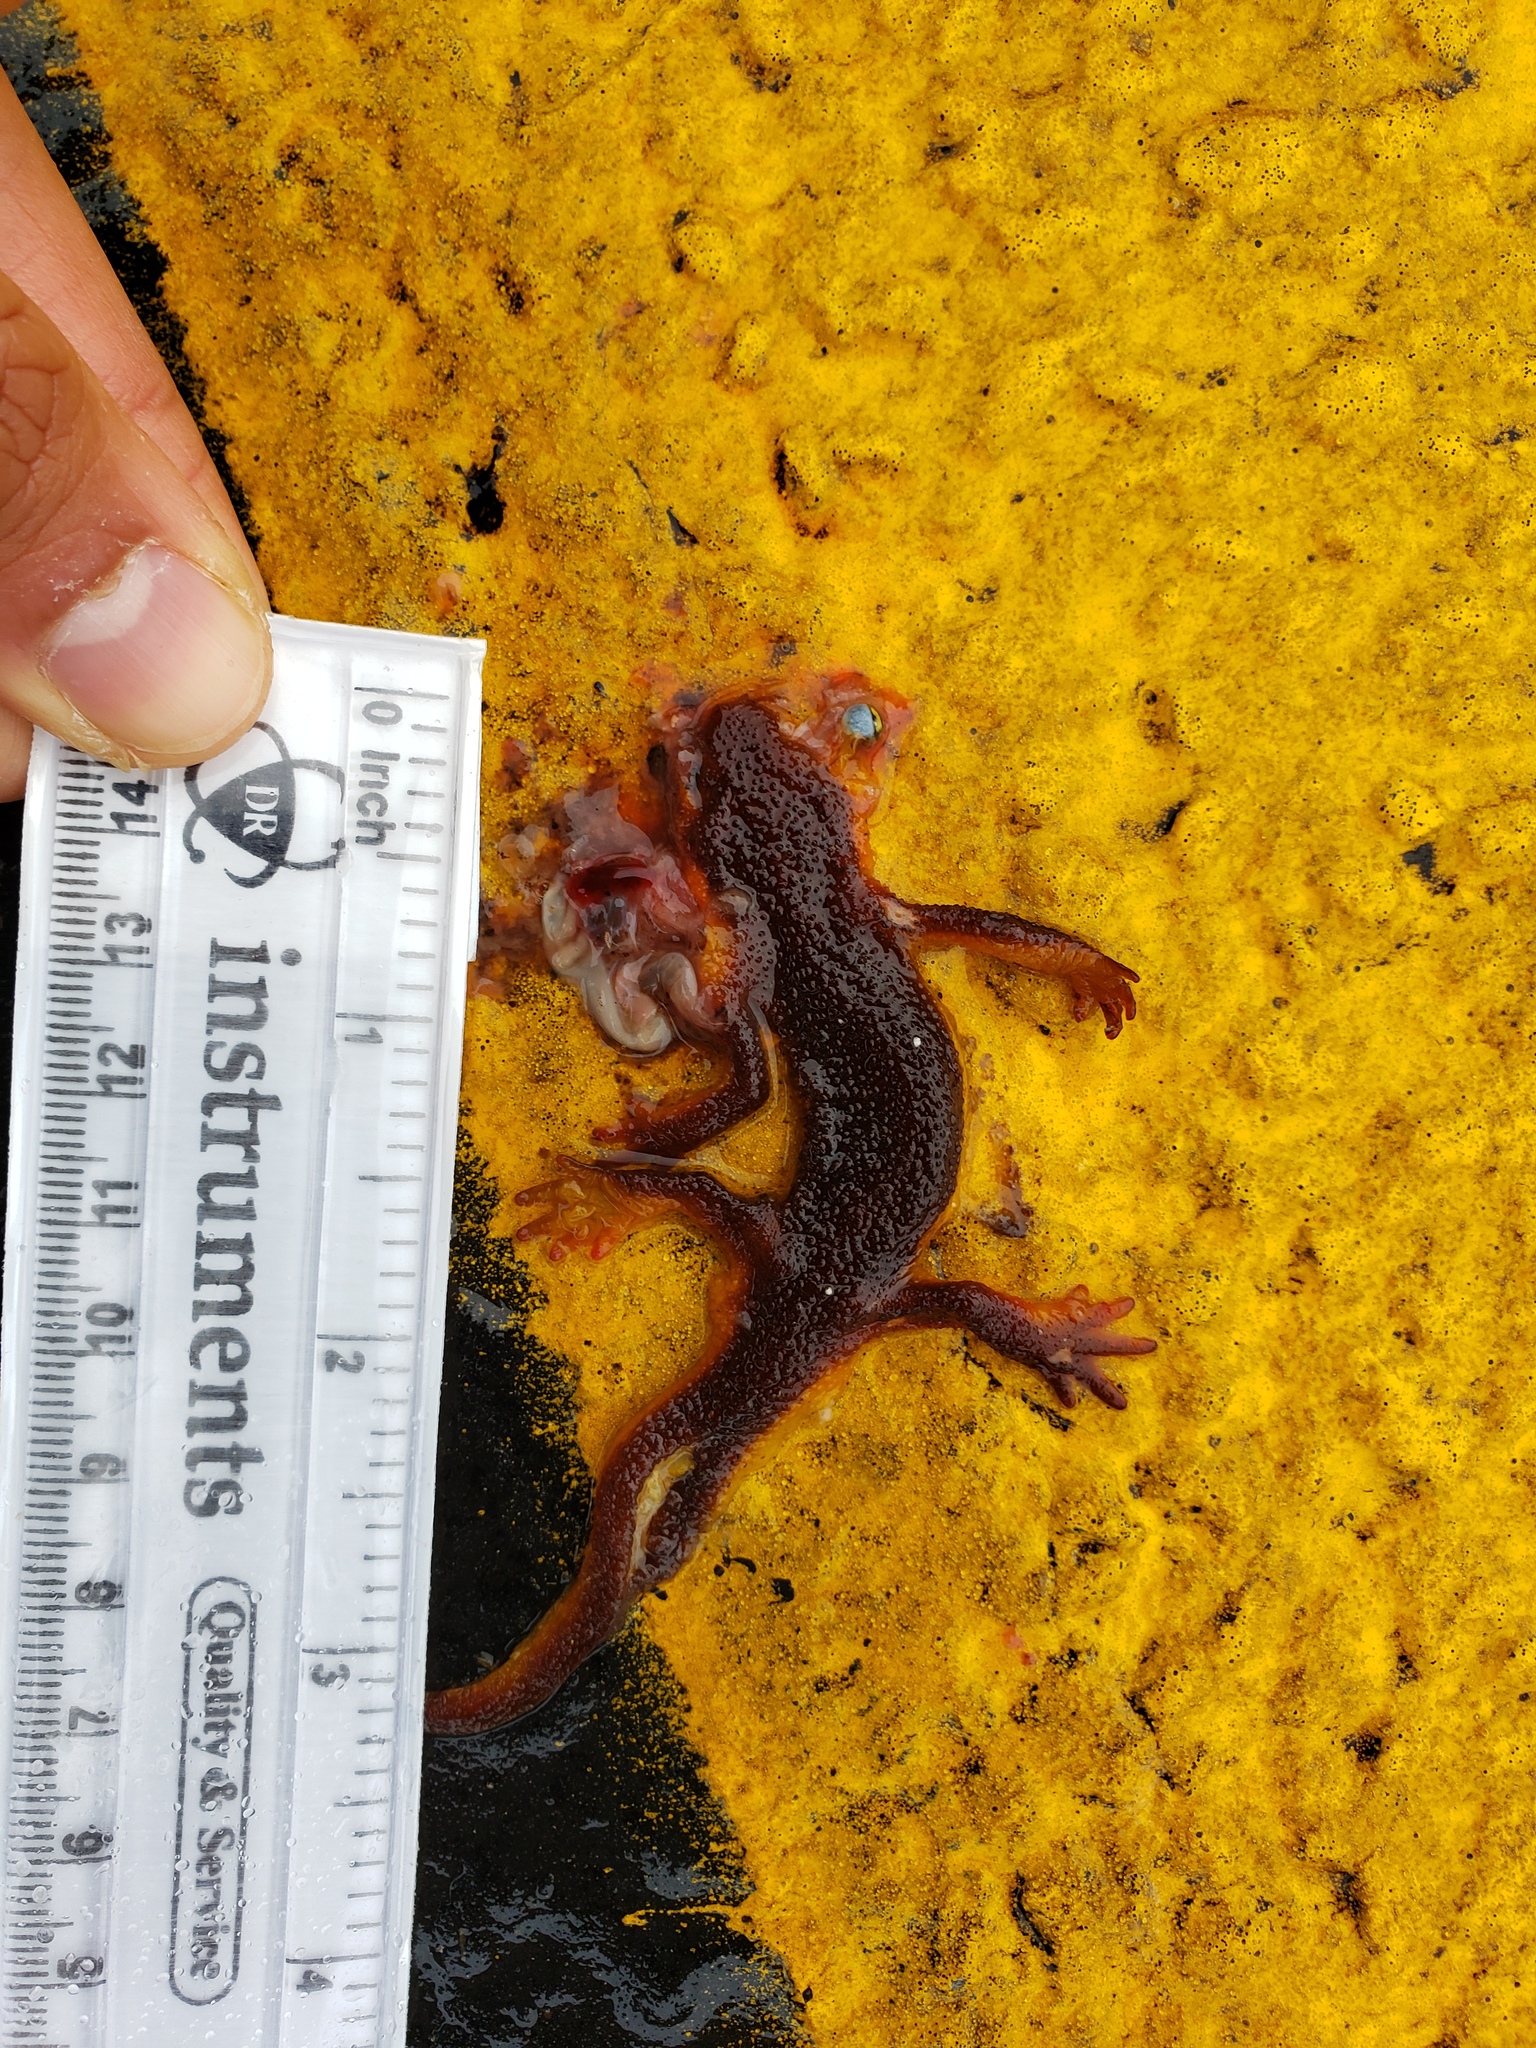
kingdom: Animalia
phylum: Chordata
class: Amphibia
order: Caudata
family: Salamandridae
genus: Taricha
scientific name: Taricha
